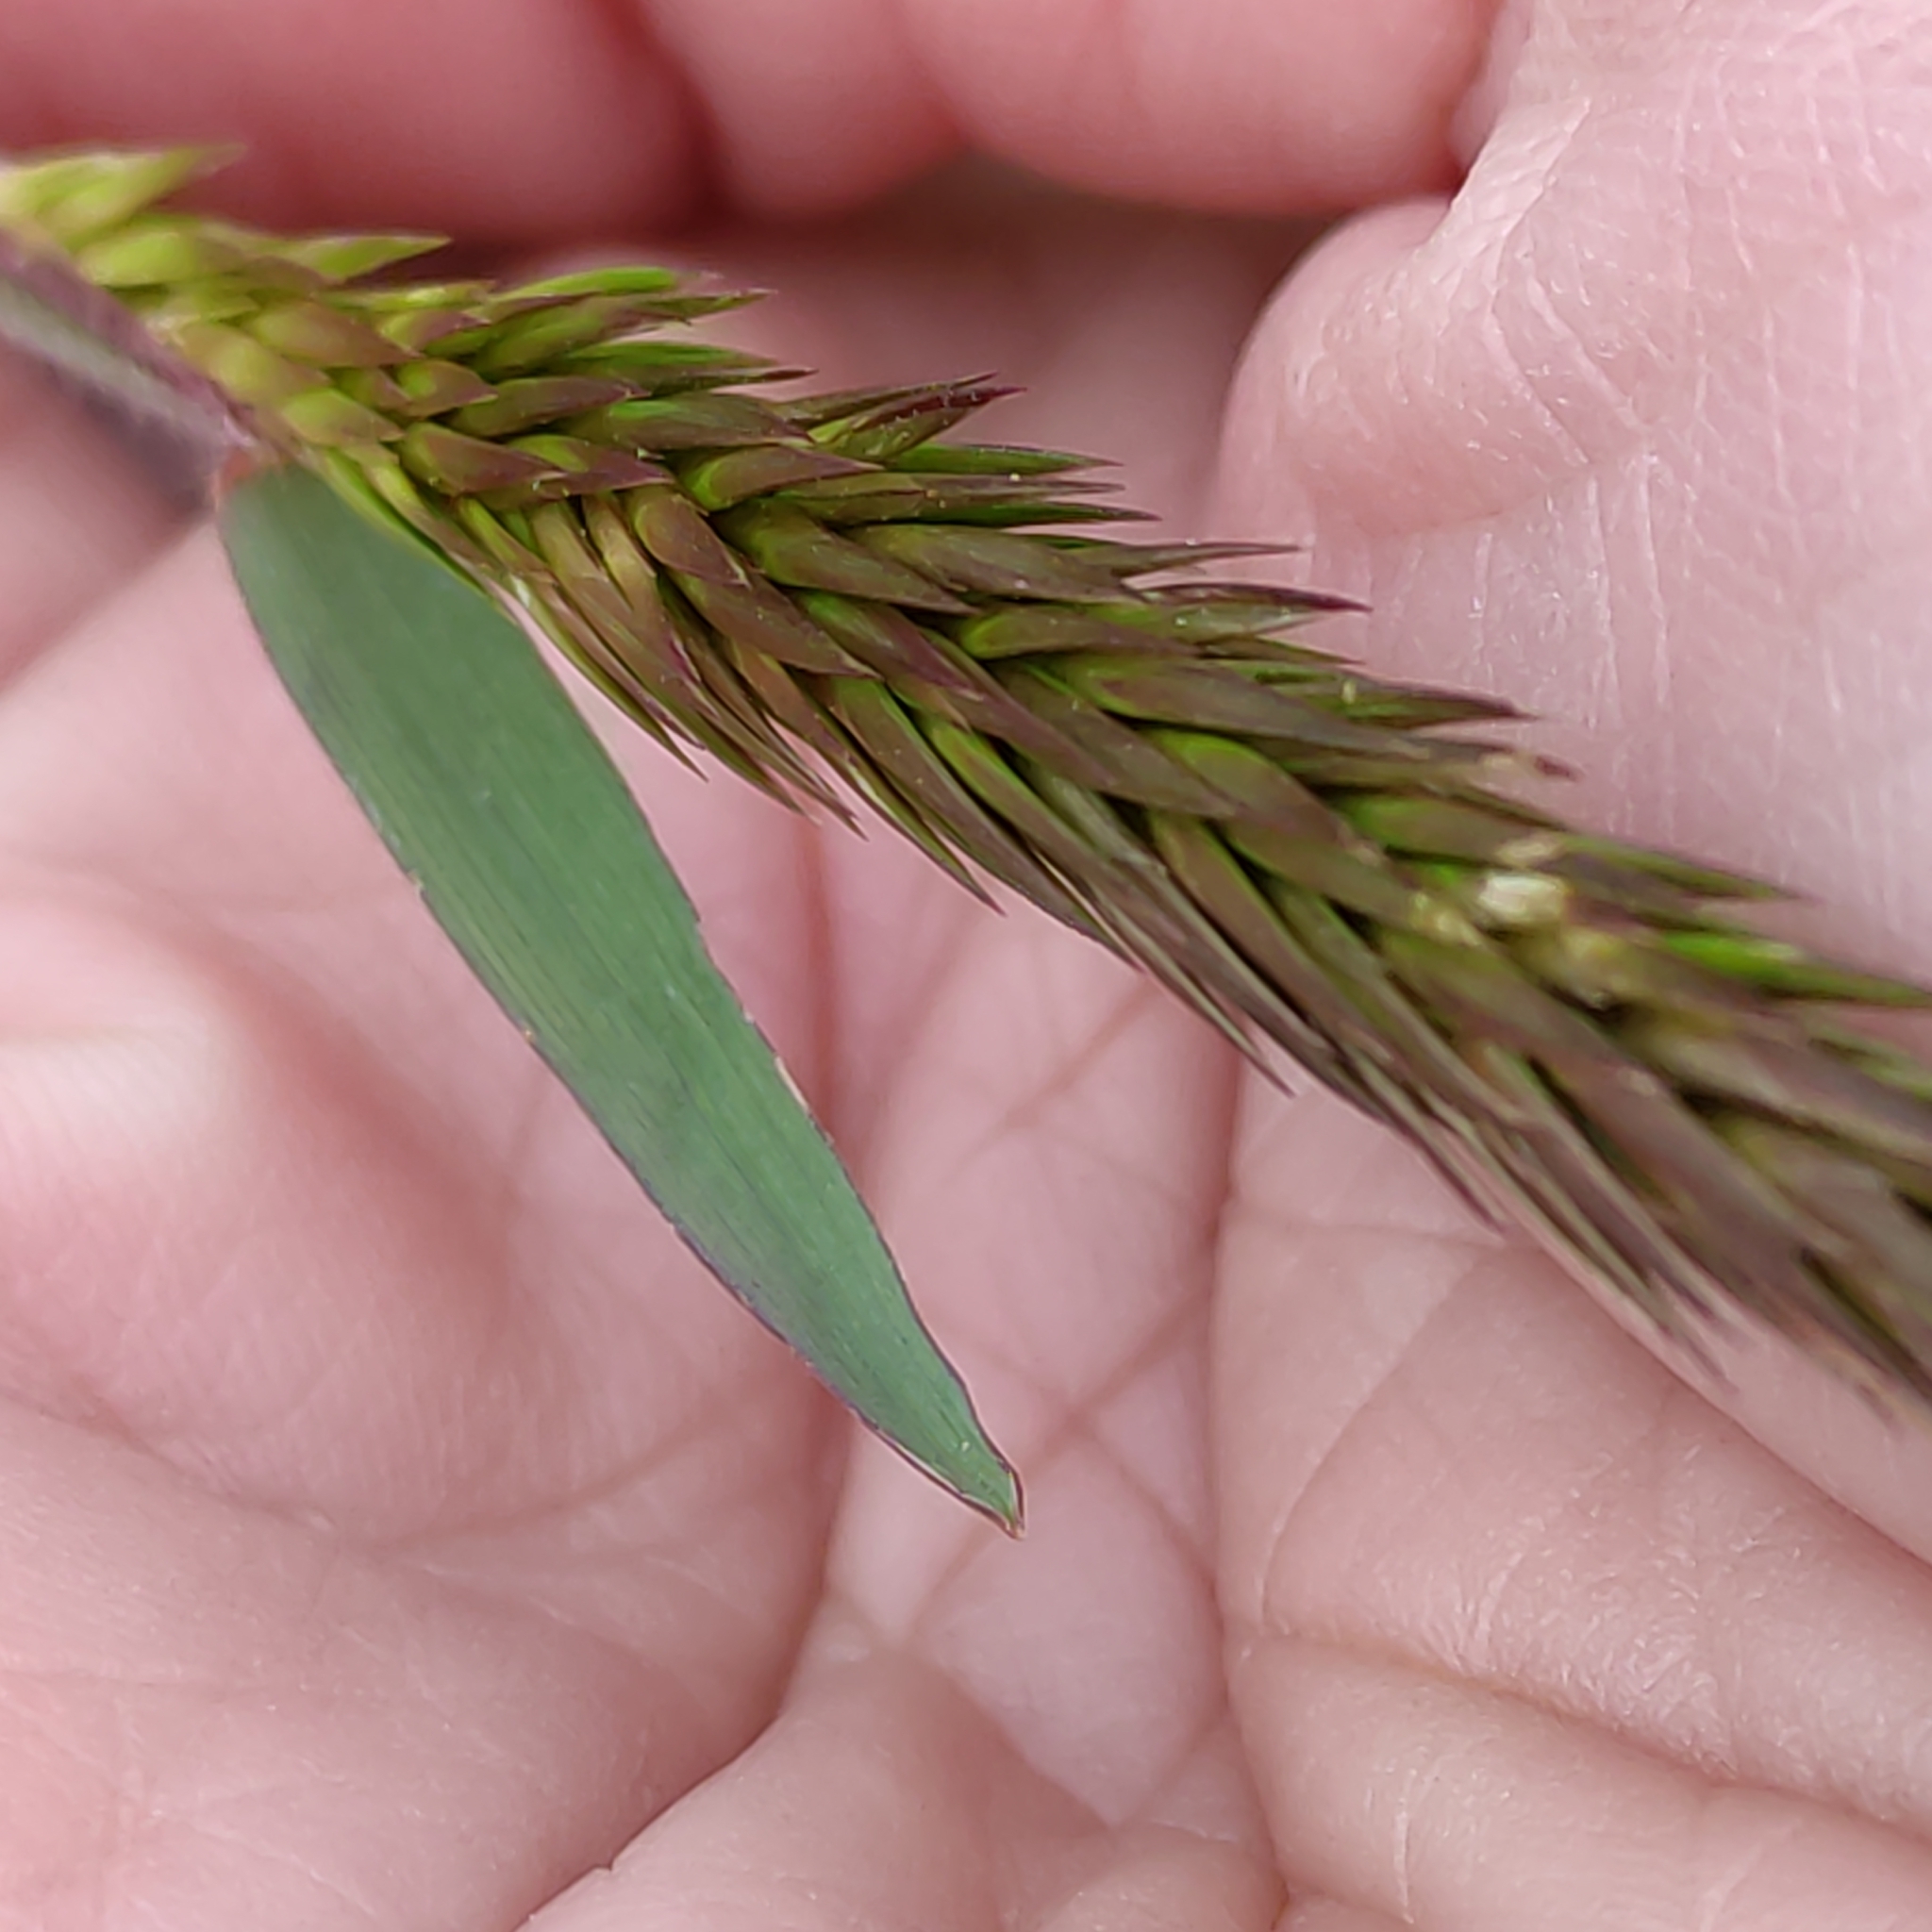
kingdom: Plantae
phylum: Tracheophyta
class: Liliopsida
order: Poales
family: Poaceae
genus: Anthoxanthum
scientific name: Anthoxanthum odoratum
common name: Sweet vernalgrass
